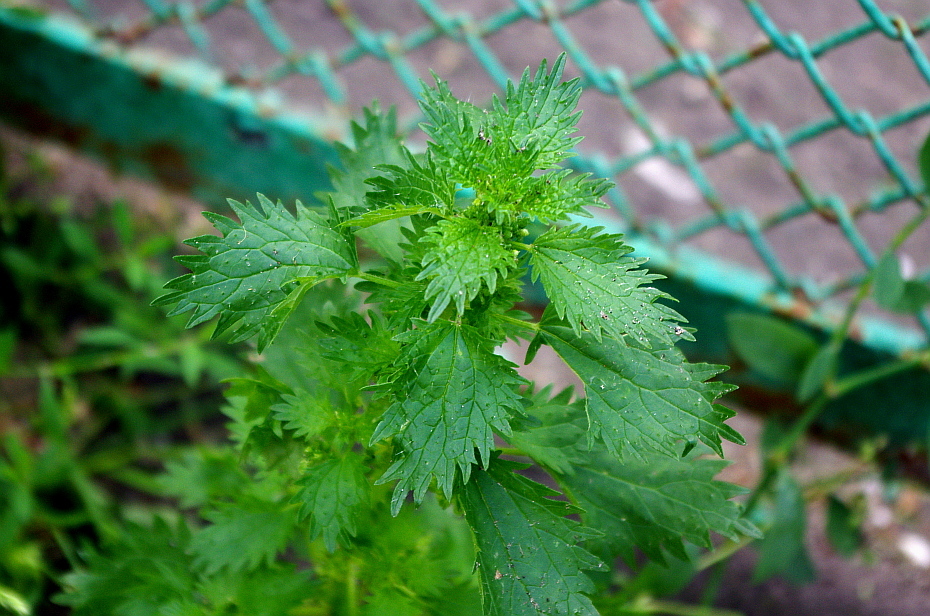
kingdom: Plantae
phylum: Tracheophyta
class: Magnoliopsida
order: Rosales
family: Urticaceae
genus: Urtica
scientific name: Urtica urens
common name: Dwarf nettle
